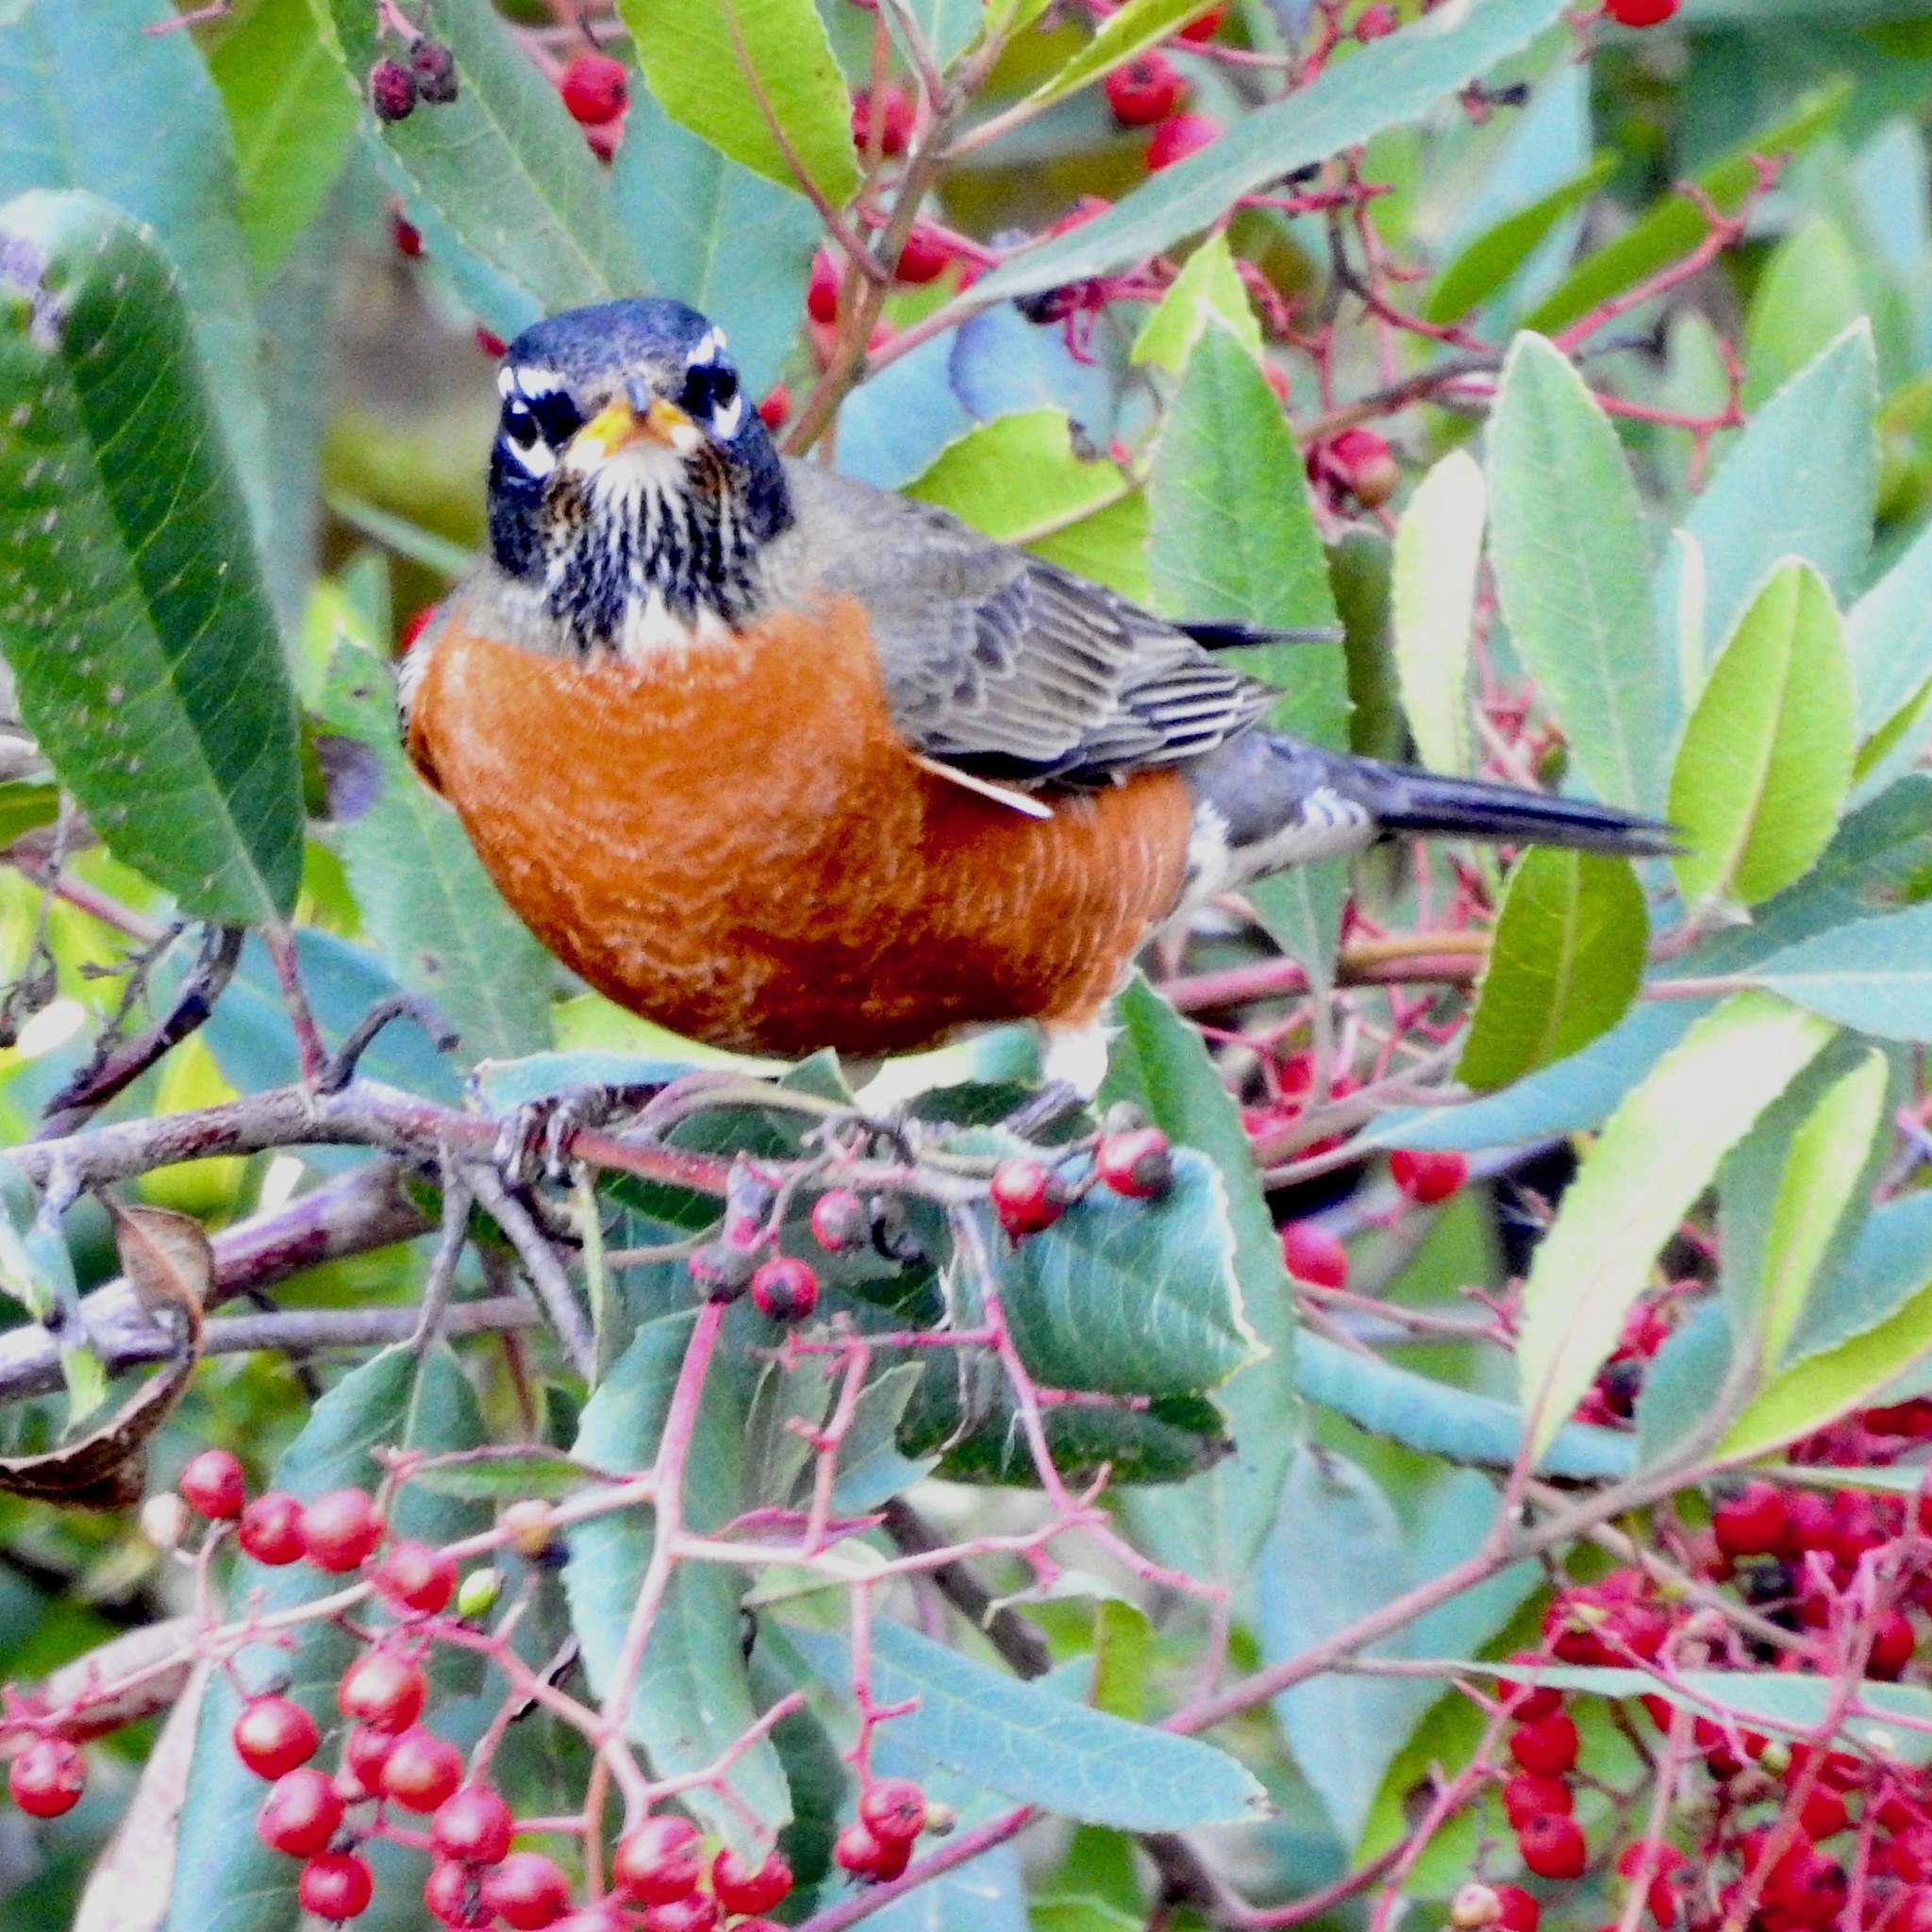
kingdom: Animalia
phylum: Chordata
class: Aves
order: Passeriformes
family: Turdidae
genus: Turdus
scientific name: Turdus migratorius
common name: American robin
